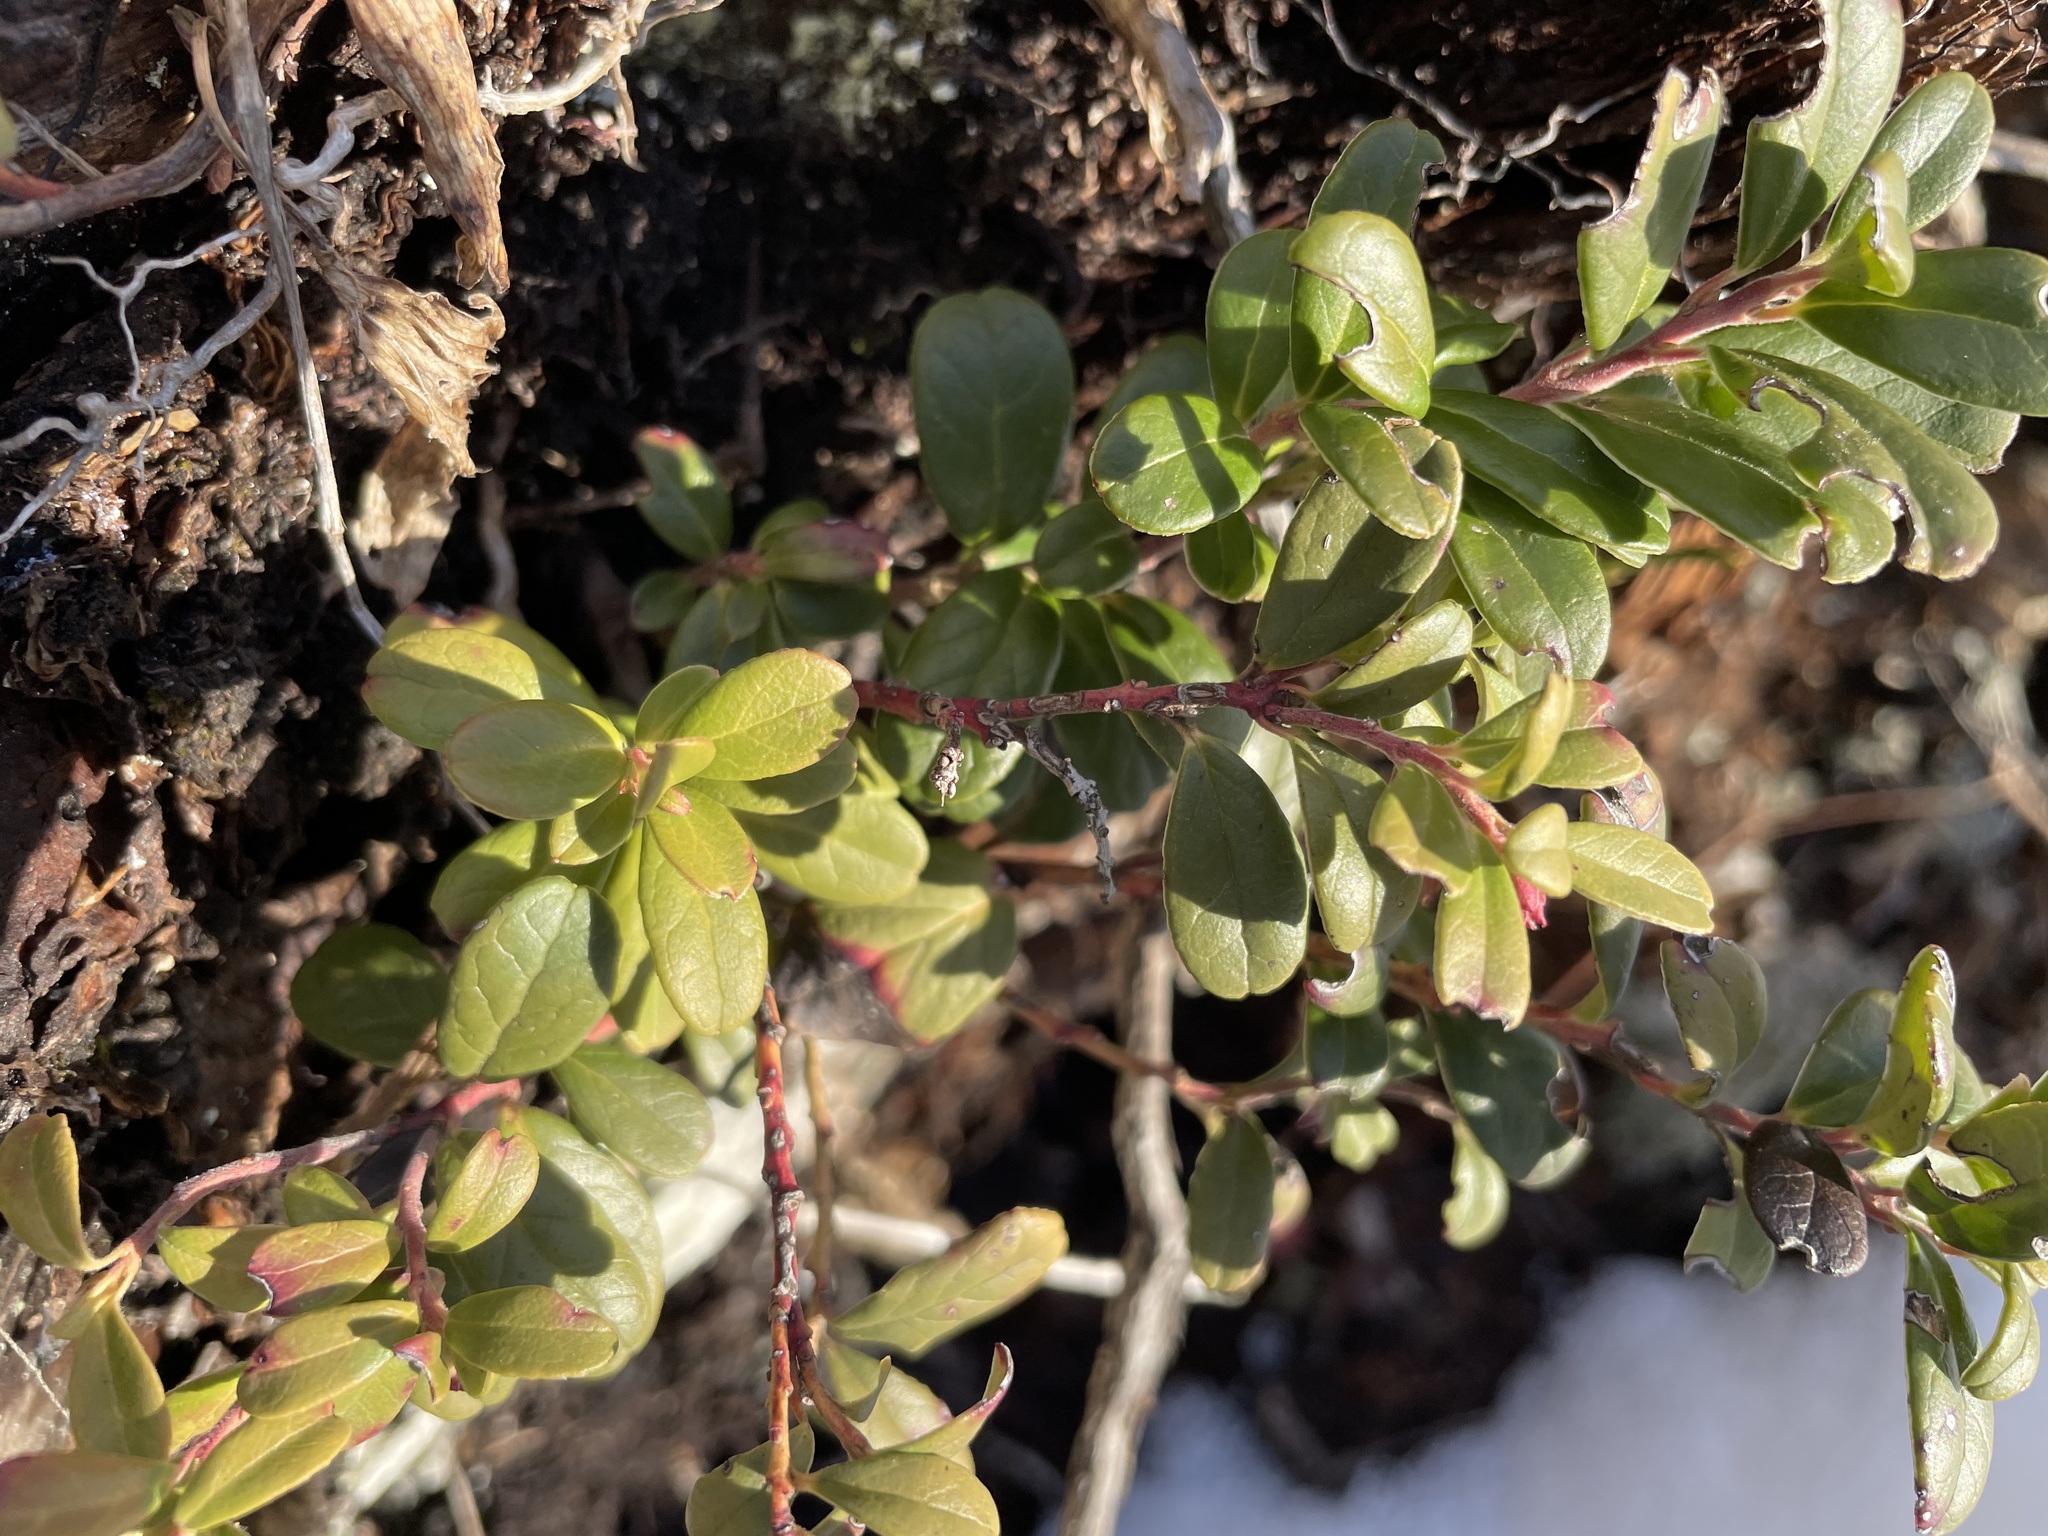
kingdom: Plantae
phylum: Tracheophyta
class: Magnoliopsida
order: Ericales
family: Ericaceae
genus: Vaccinium
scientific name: Vaccinium vitis-idaea
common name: Cowberry
